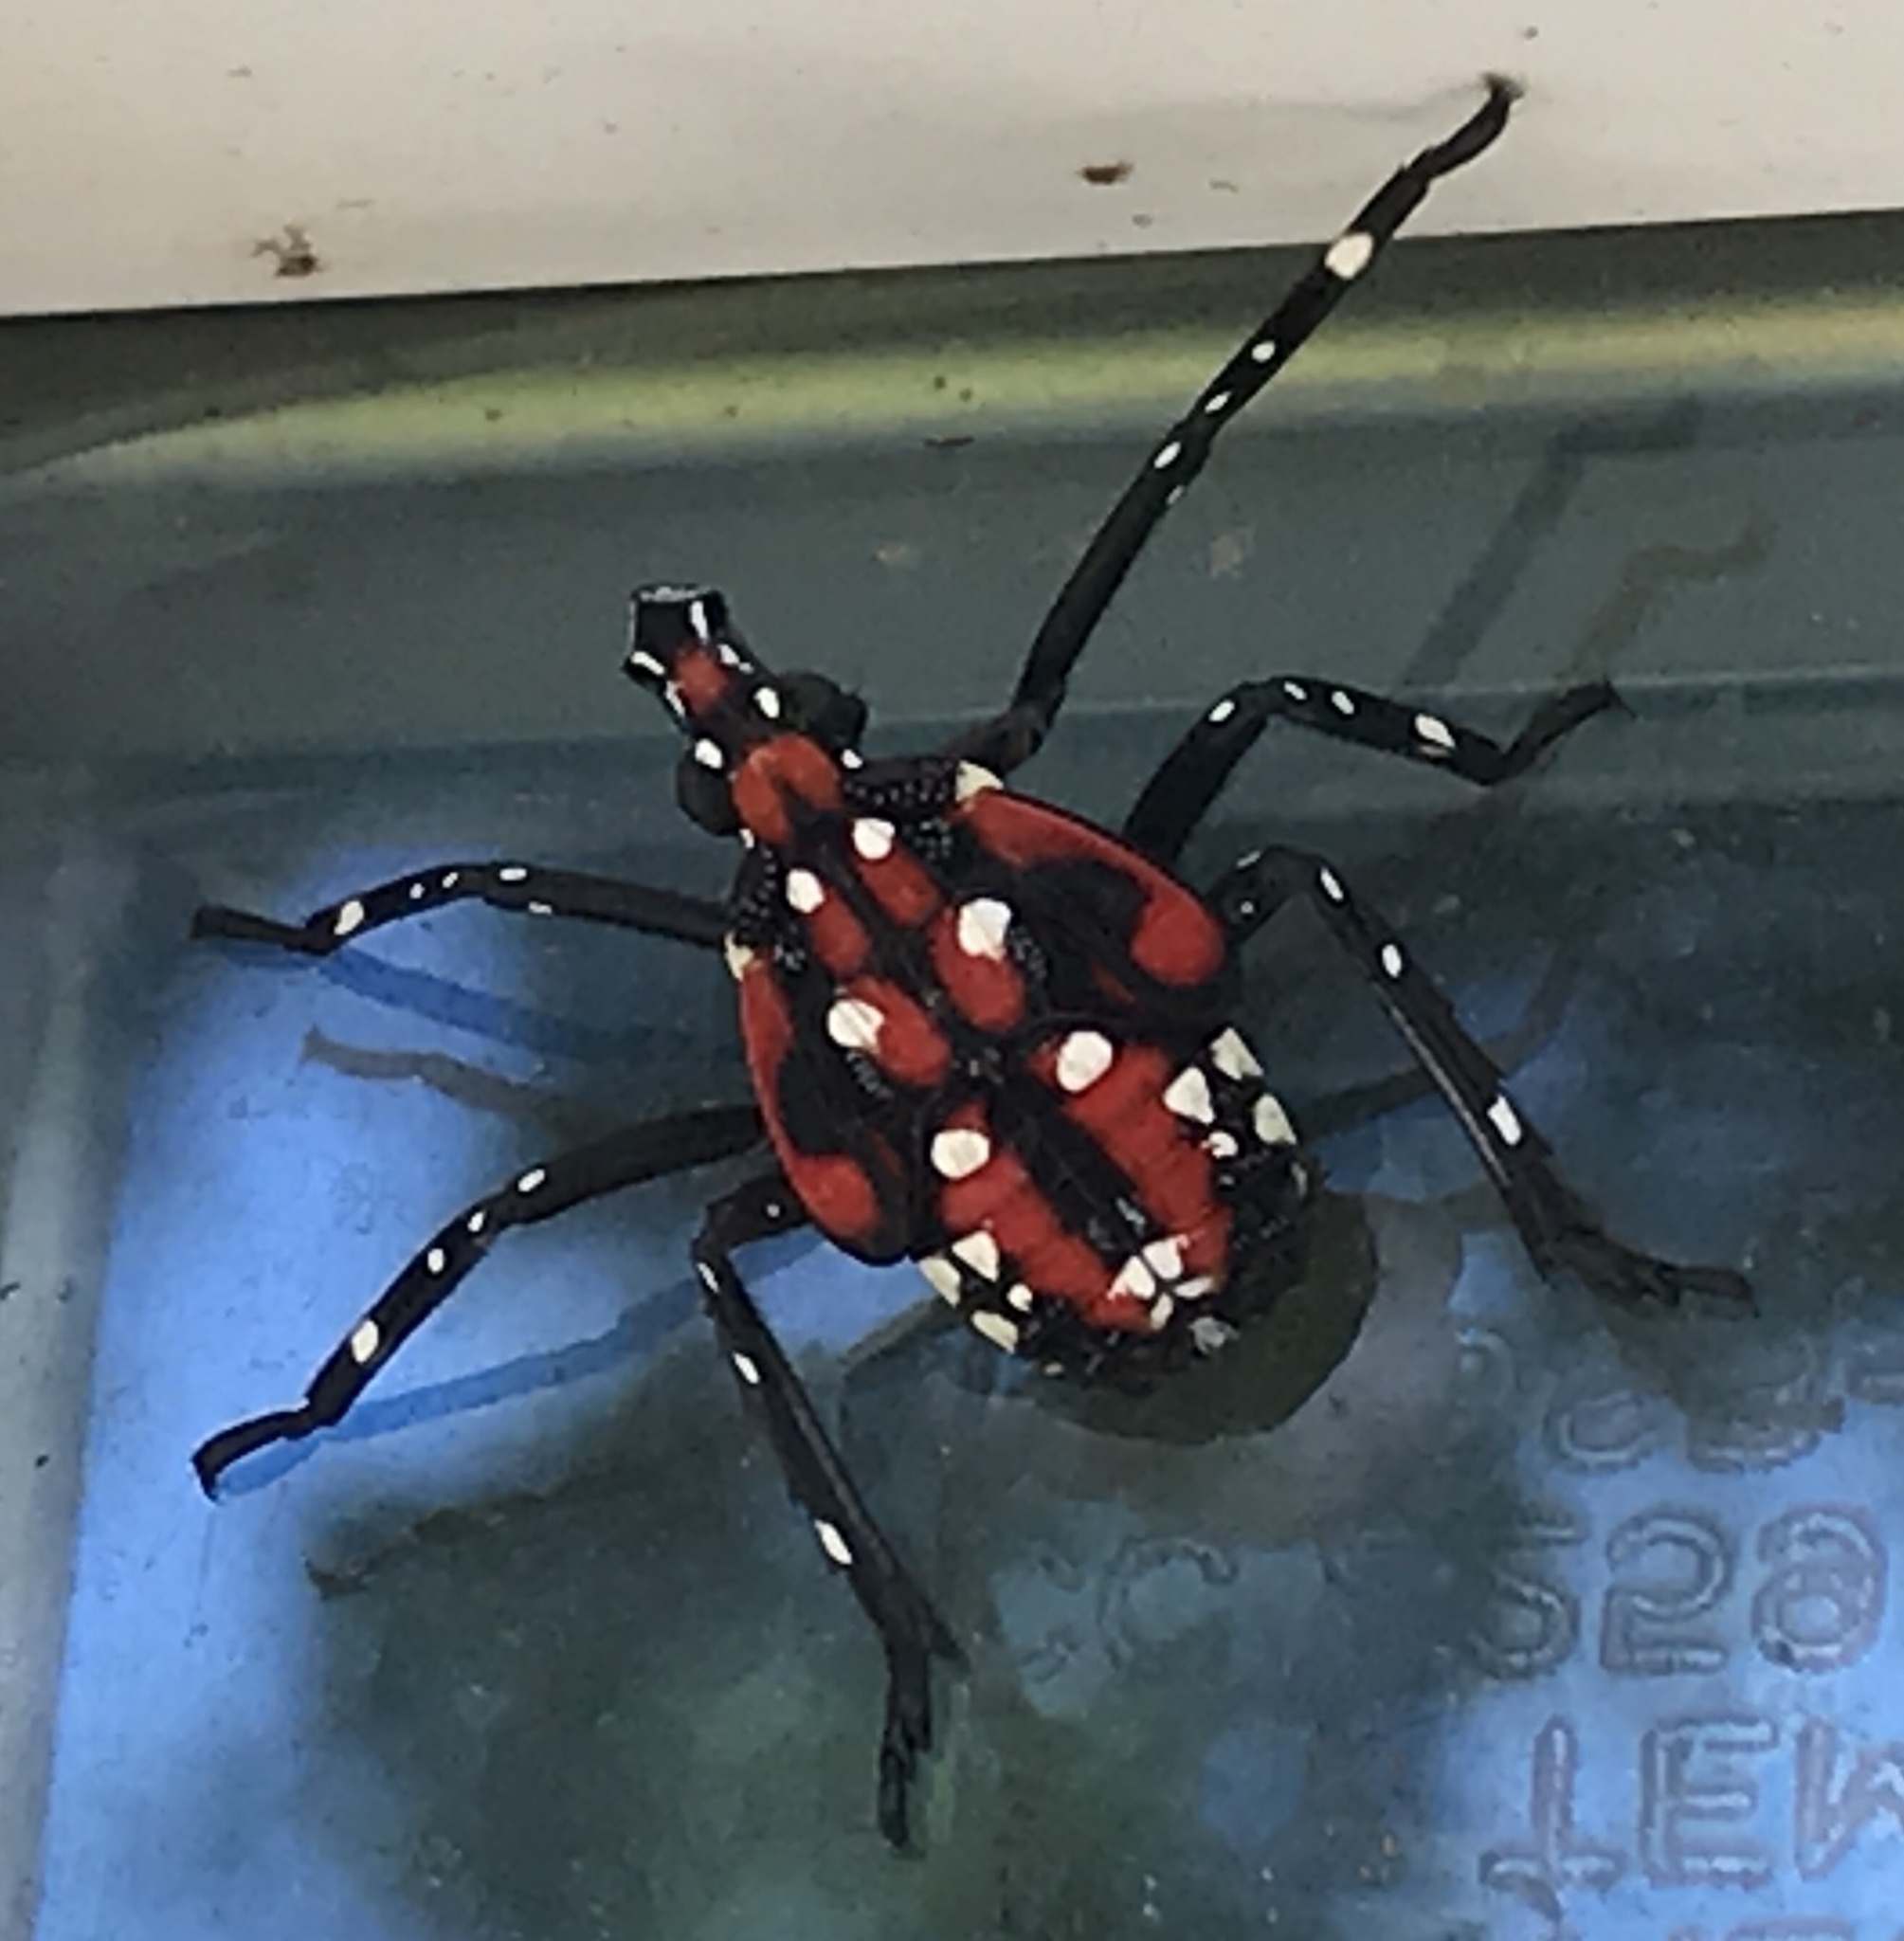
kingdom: Animalia
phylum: Arthropoda
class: Insecta
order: Hemiptera
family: Fulgoridae
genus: Lycorma
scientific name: Lycorma delicatula
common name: Spotted lanternfly
